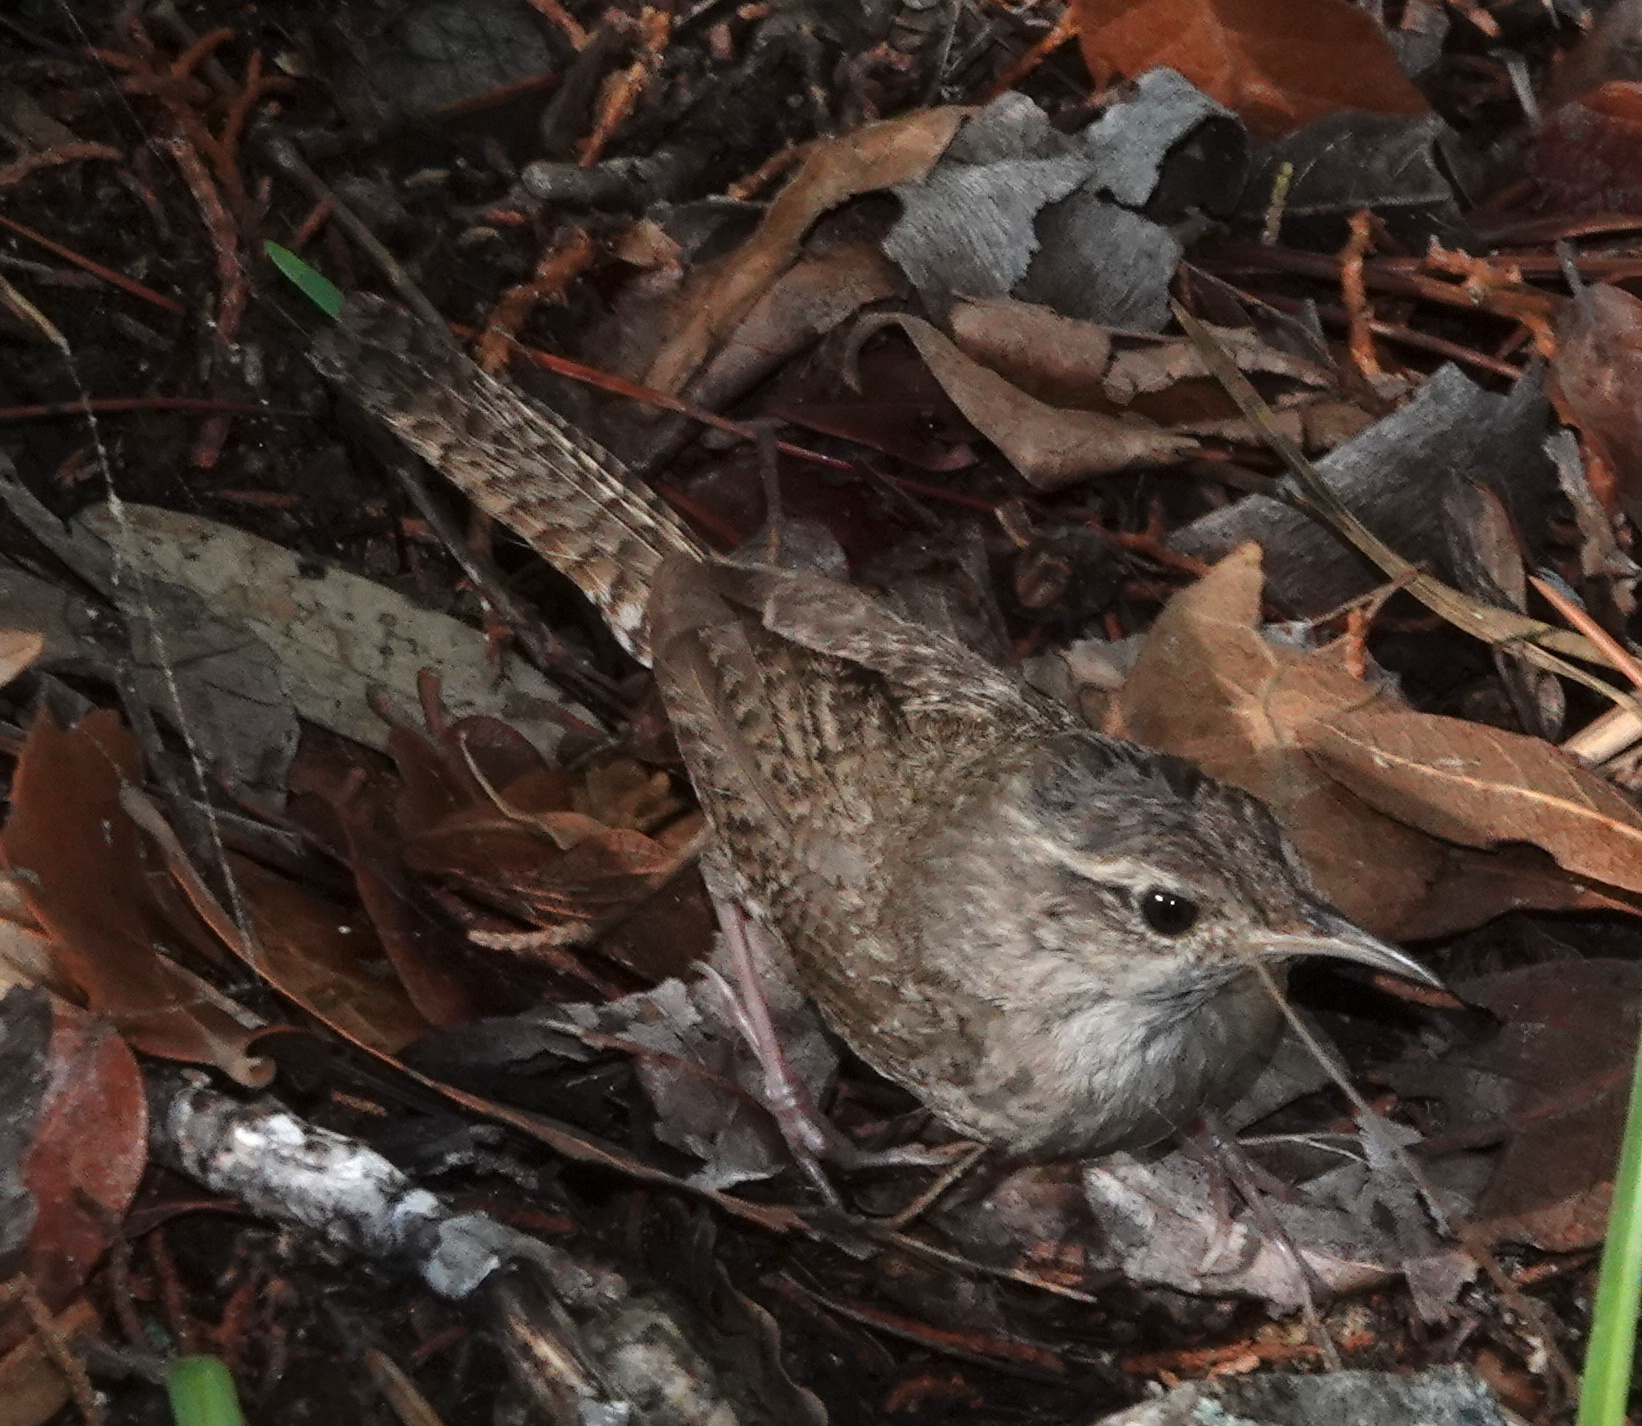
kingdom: Animalia
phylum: Chordata
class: Aves
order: Passeriformes
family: Troglodytidae
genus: Troglodytes
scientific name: Troglodytes aedon
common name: House wren
